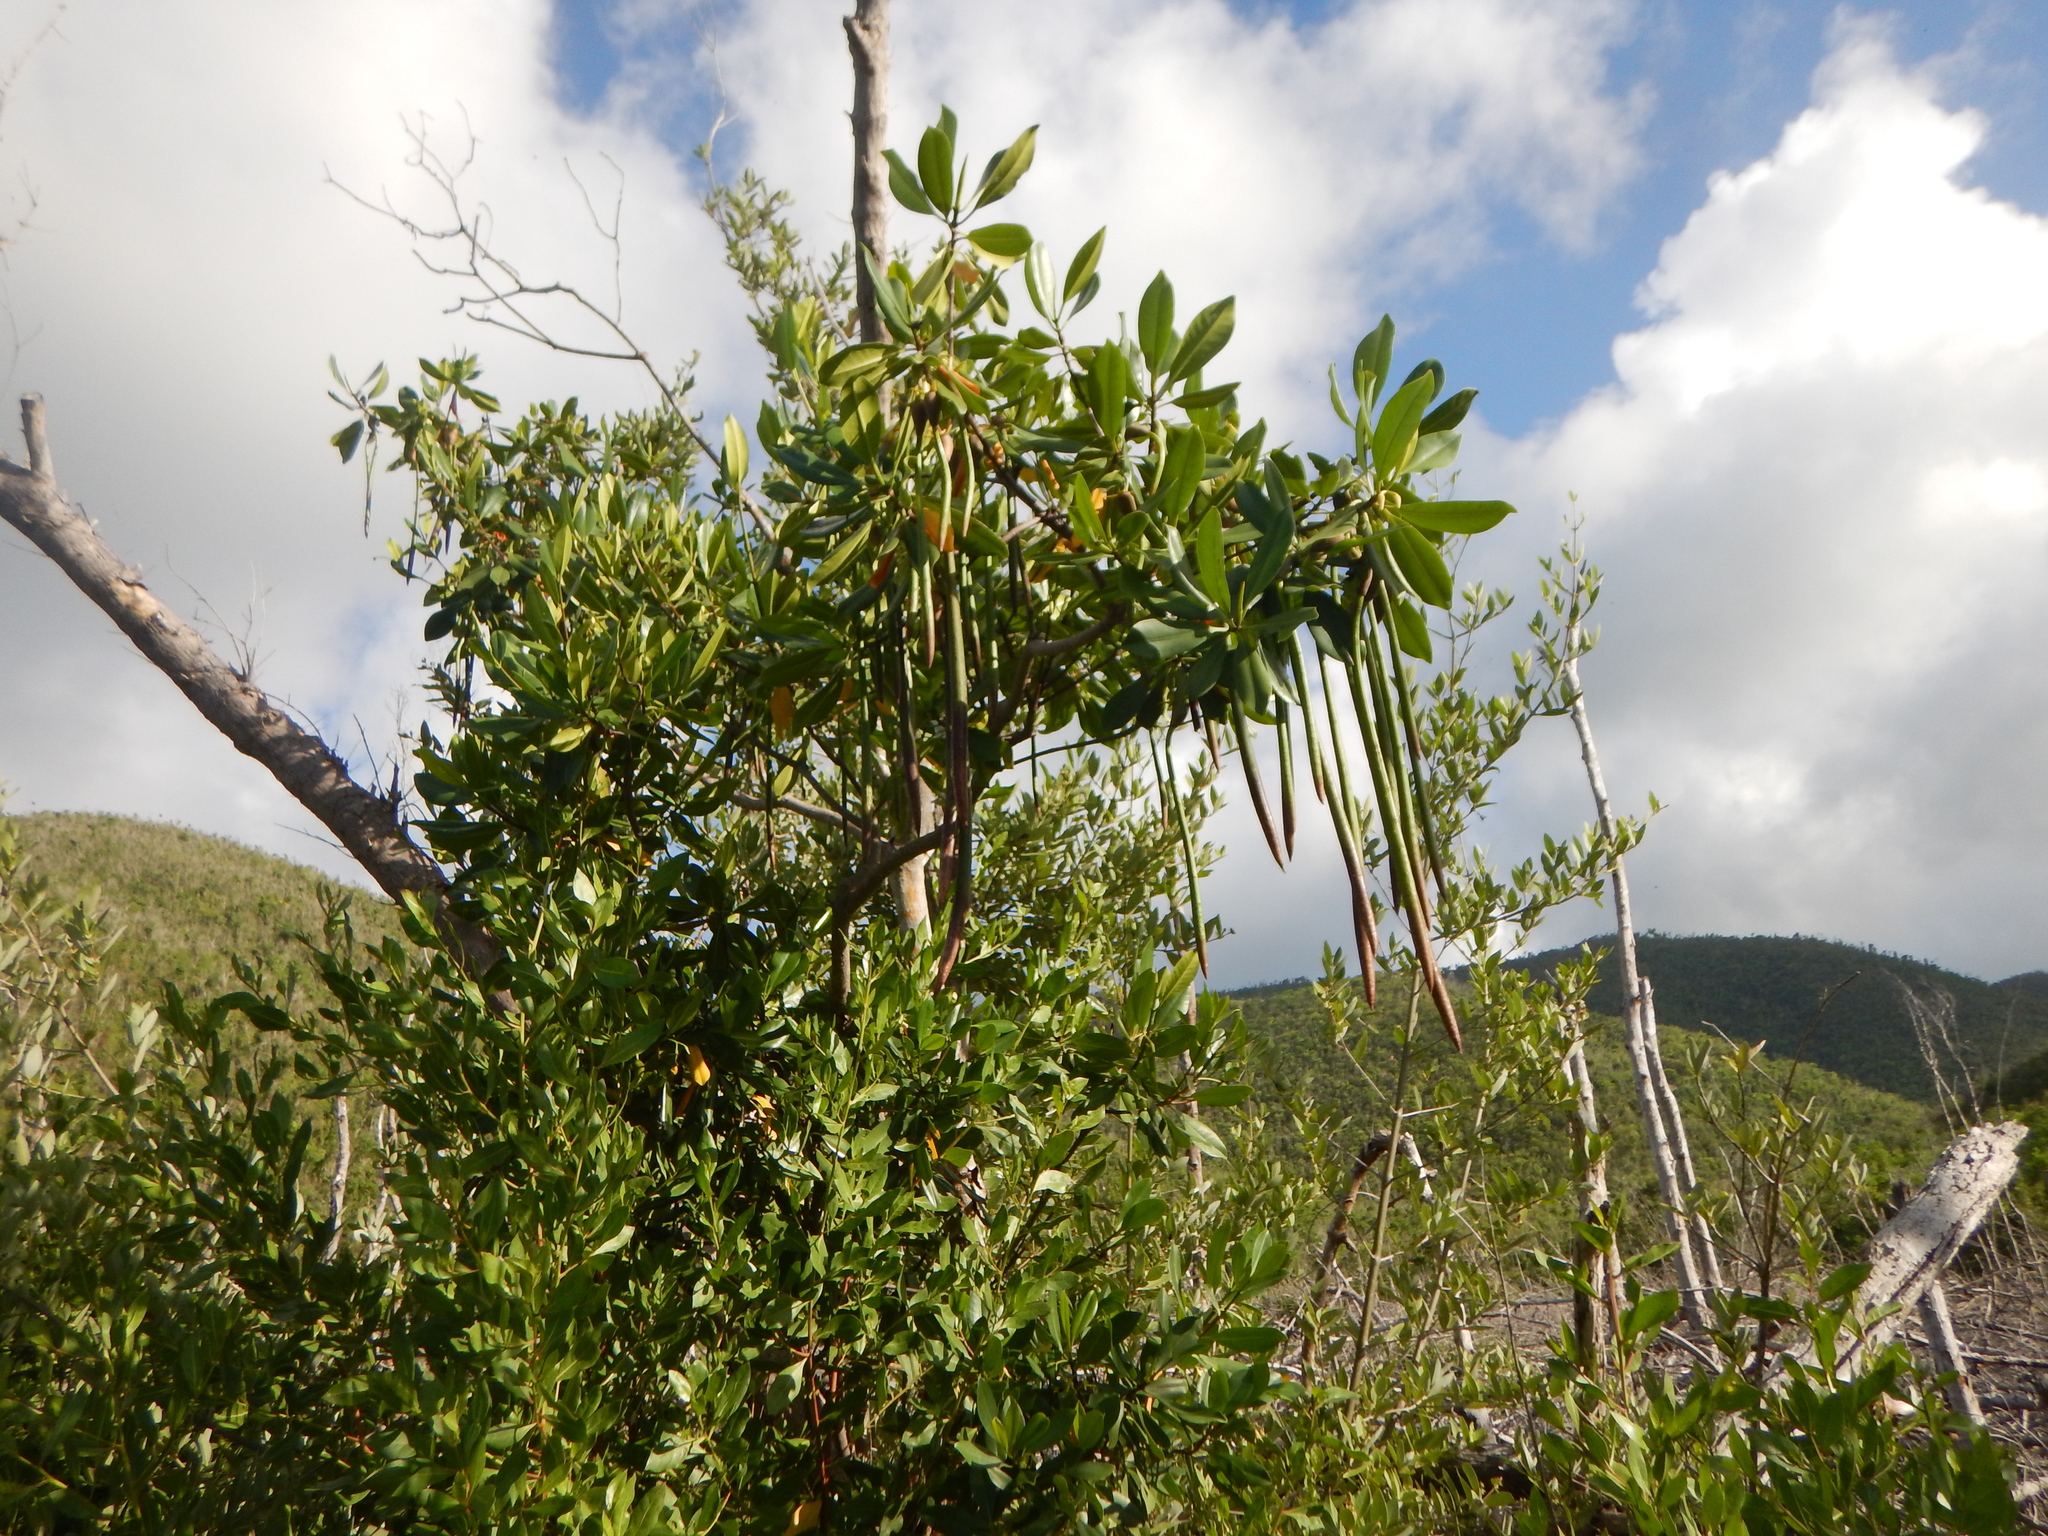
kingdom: Plantae
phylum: Tracheophyta
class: Magnoliopsida
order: Malpighiales
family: Rhizophoraceae
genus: Rhizophora
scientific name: Rhizophora mangle
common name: Red mangrove
